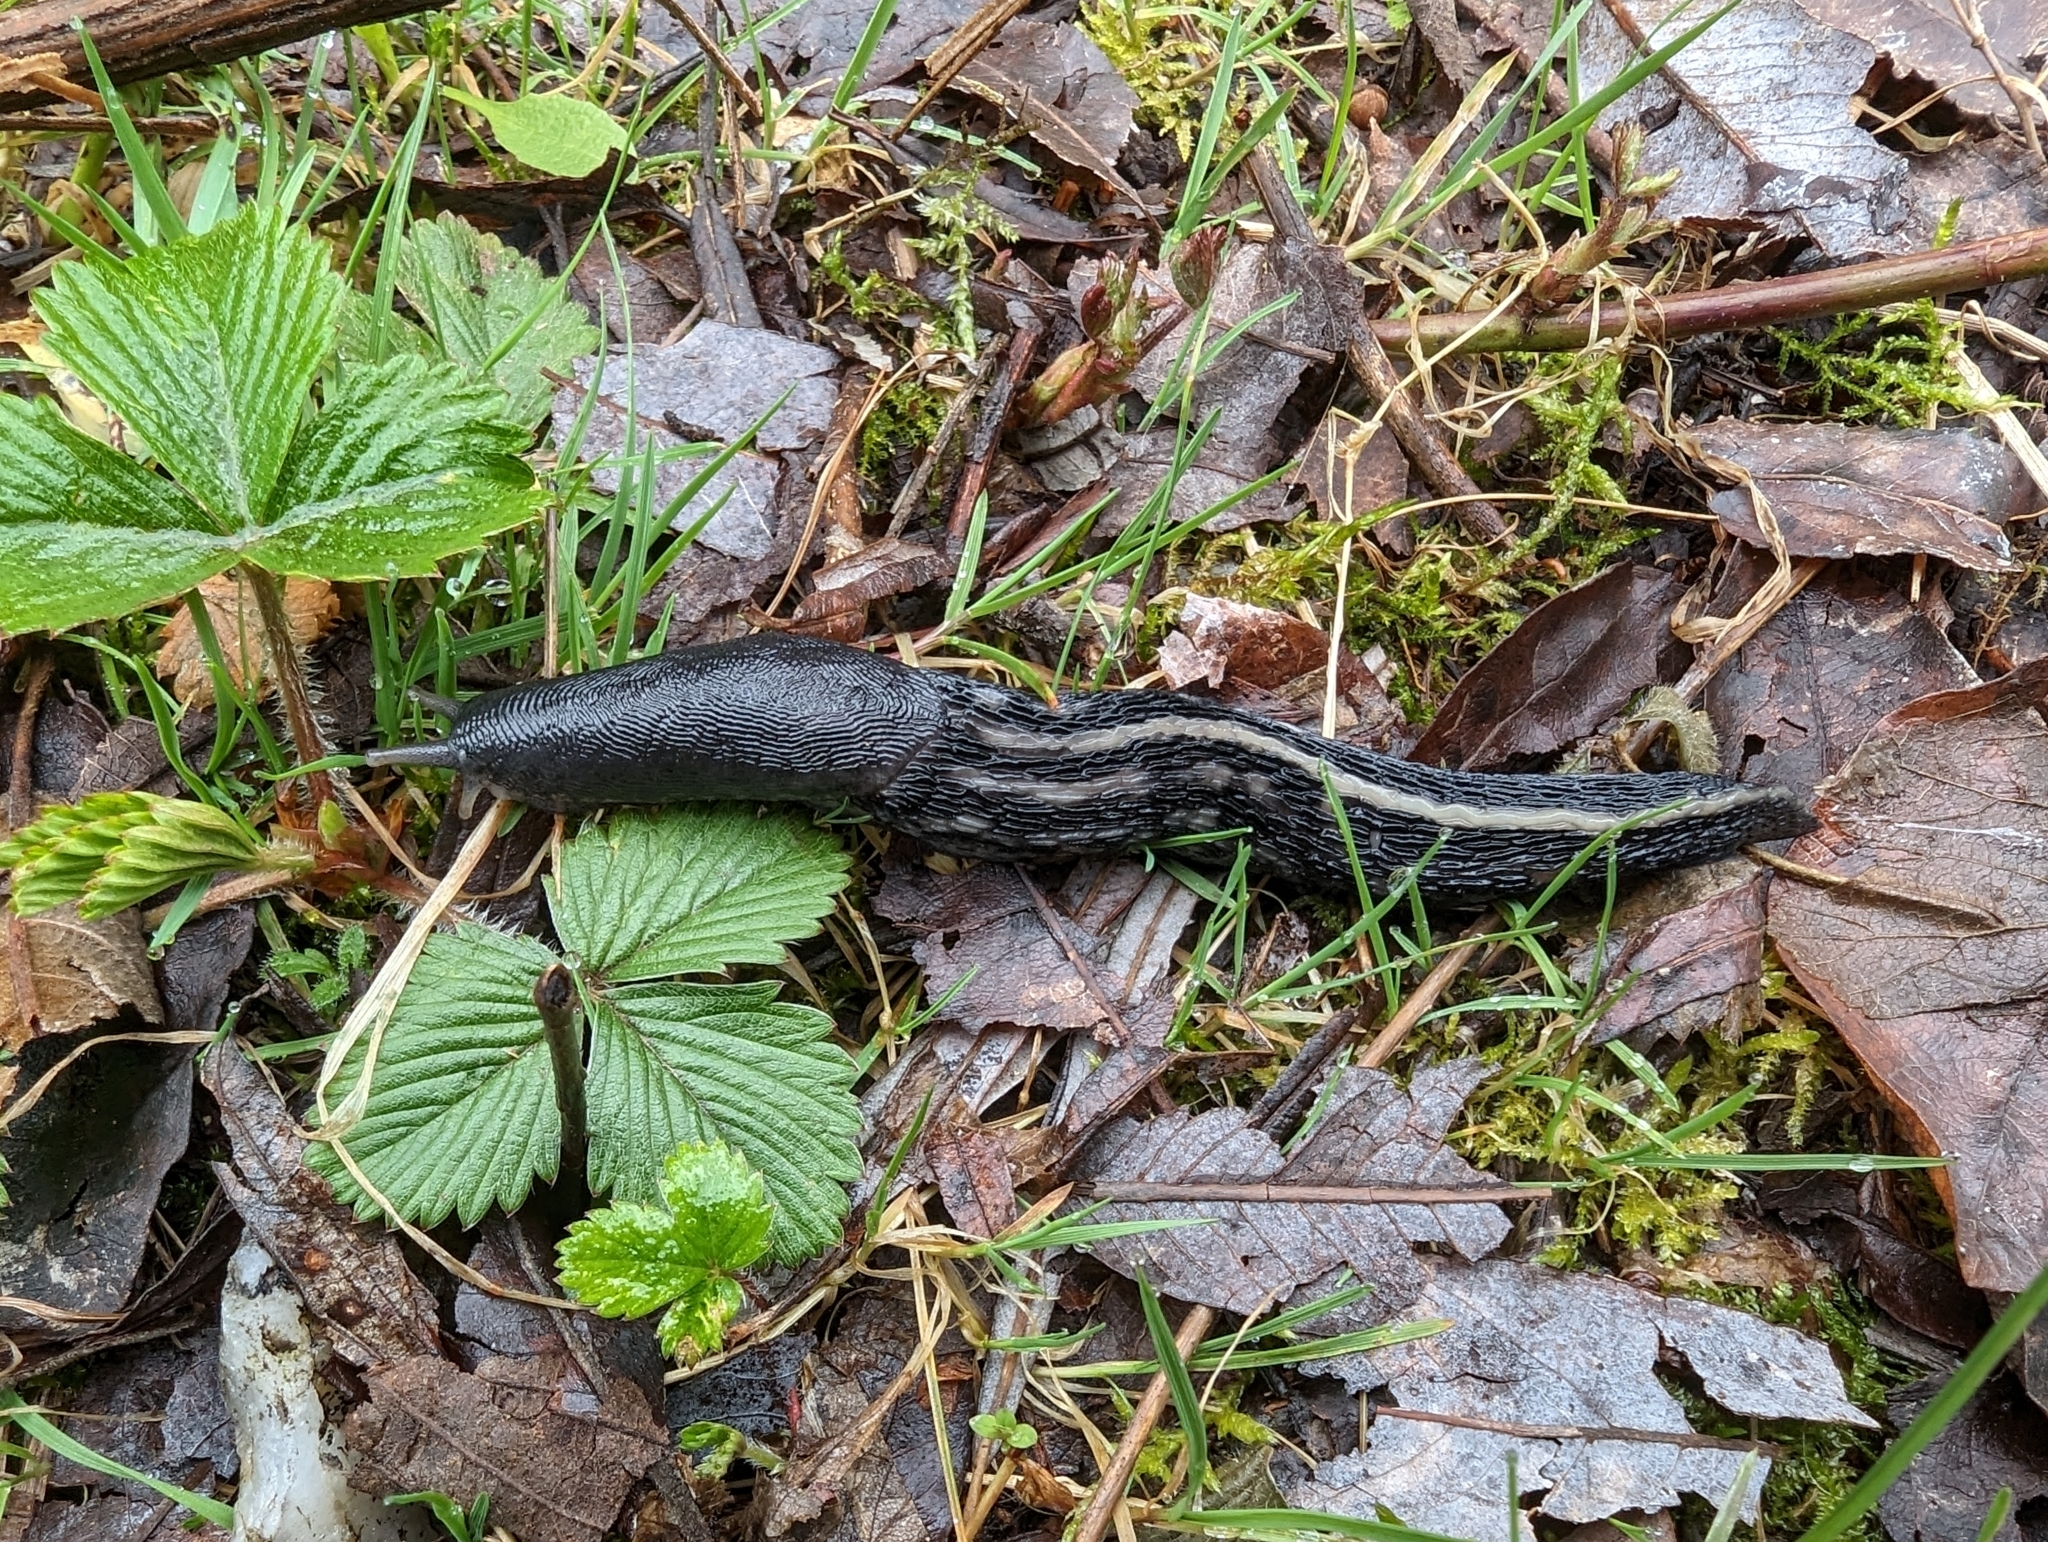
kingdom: Animalia
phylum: Mollusca
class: Gastropoda
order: Stylommatophora
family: Limacidae
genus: Limax
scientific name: Limax cinereoniger
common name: Ash-black slug
